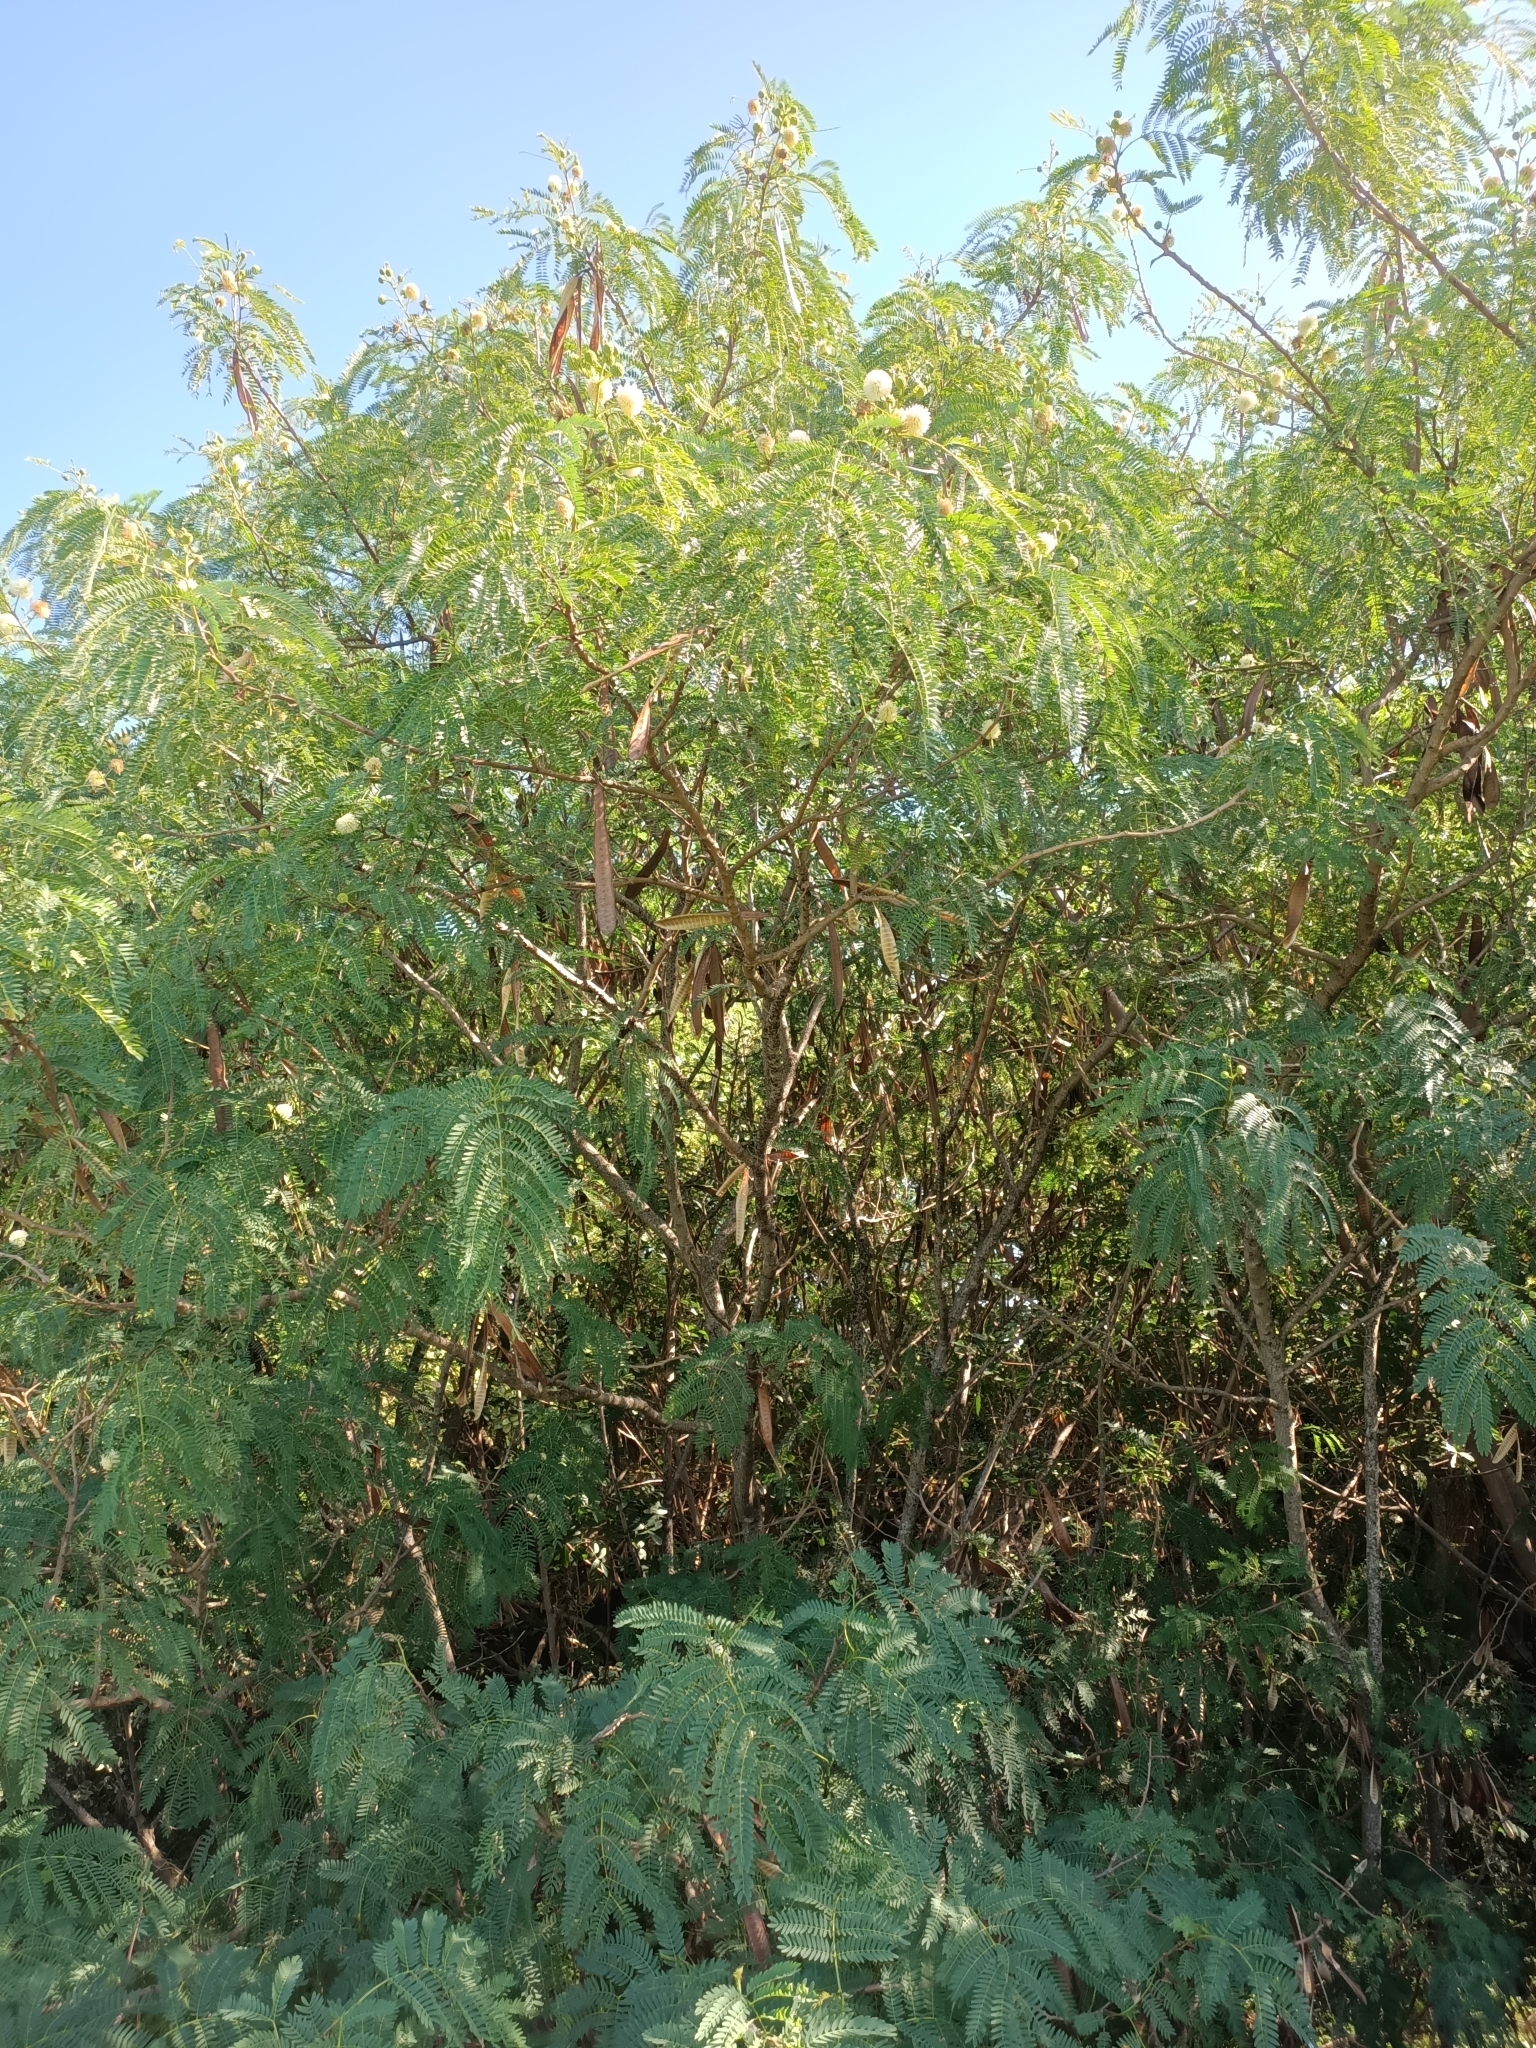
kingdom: Plantae
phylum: Tracheophyta
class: Magnoliopsida
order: Fabales
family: Fabaceae
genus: Leucaena
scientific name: Leucaena leucocephala
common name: White leadtree
